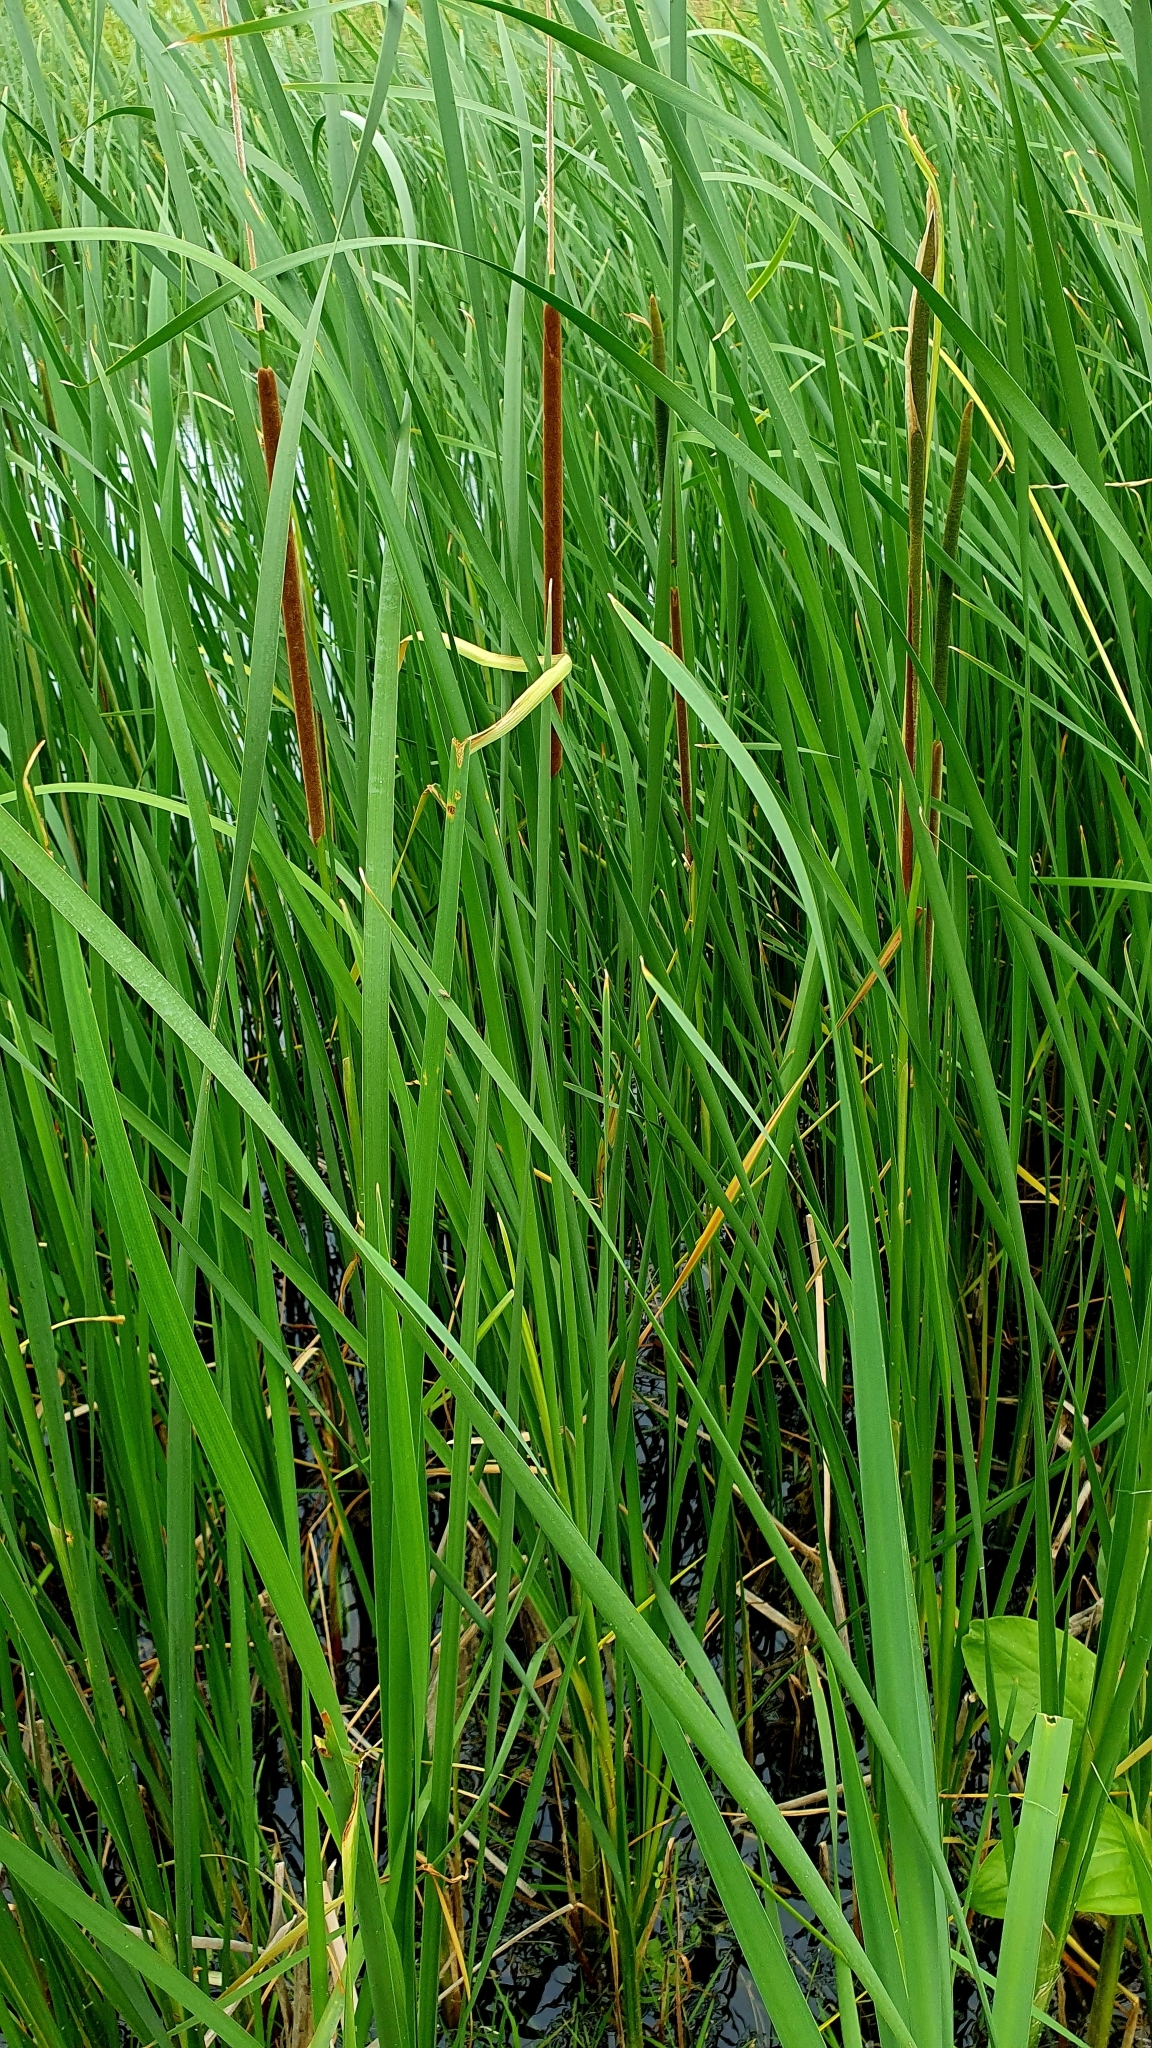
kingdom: Plantae
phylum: Tracheophyta
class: Liliopsida
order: Poales
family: Typhaceae
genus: Typha
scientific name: Typha angustifolia
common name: Lesser bulrush
